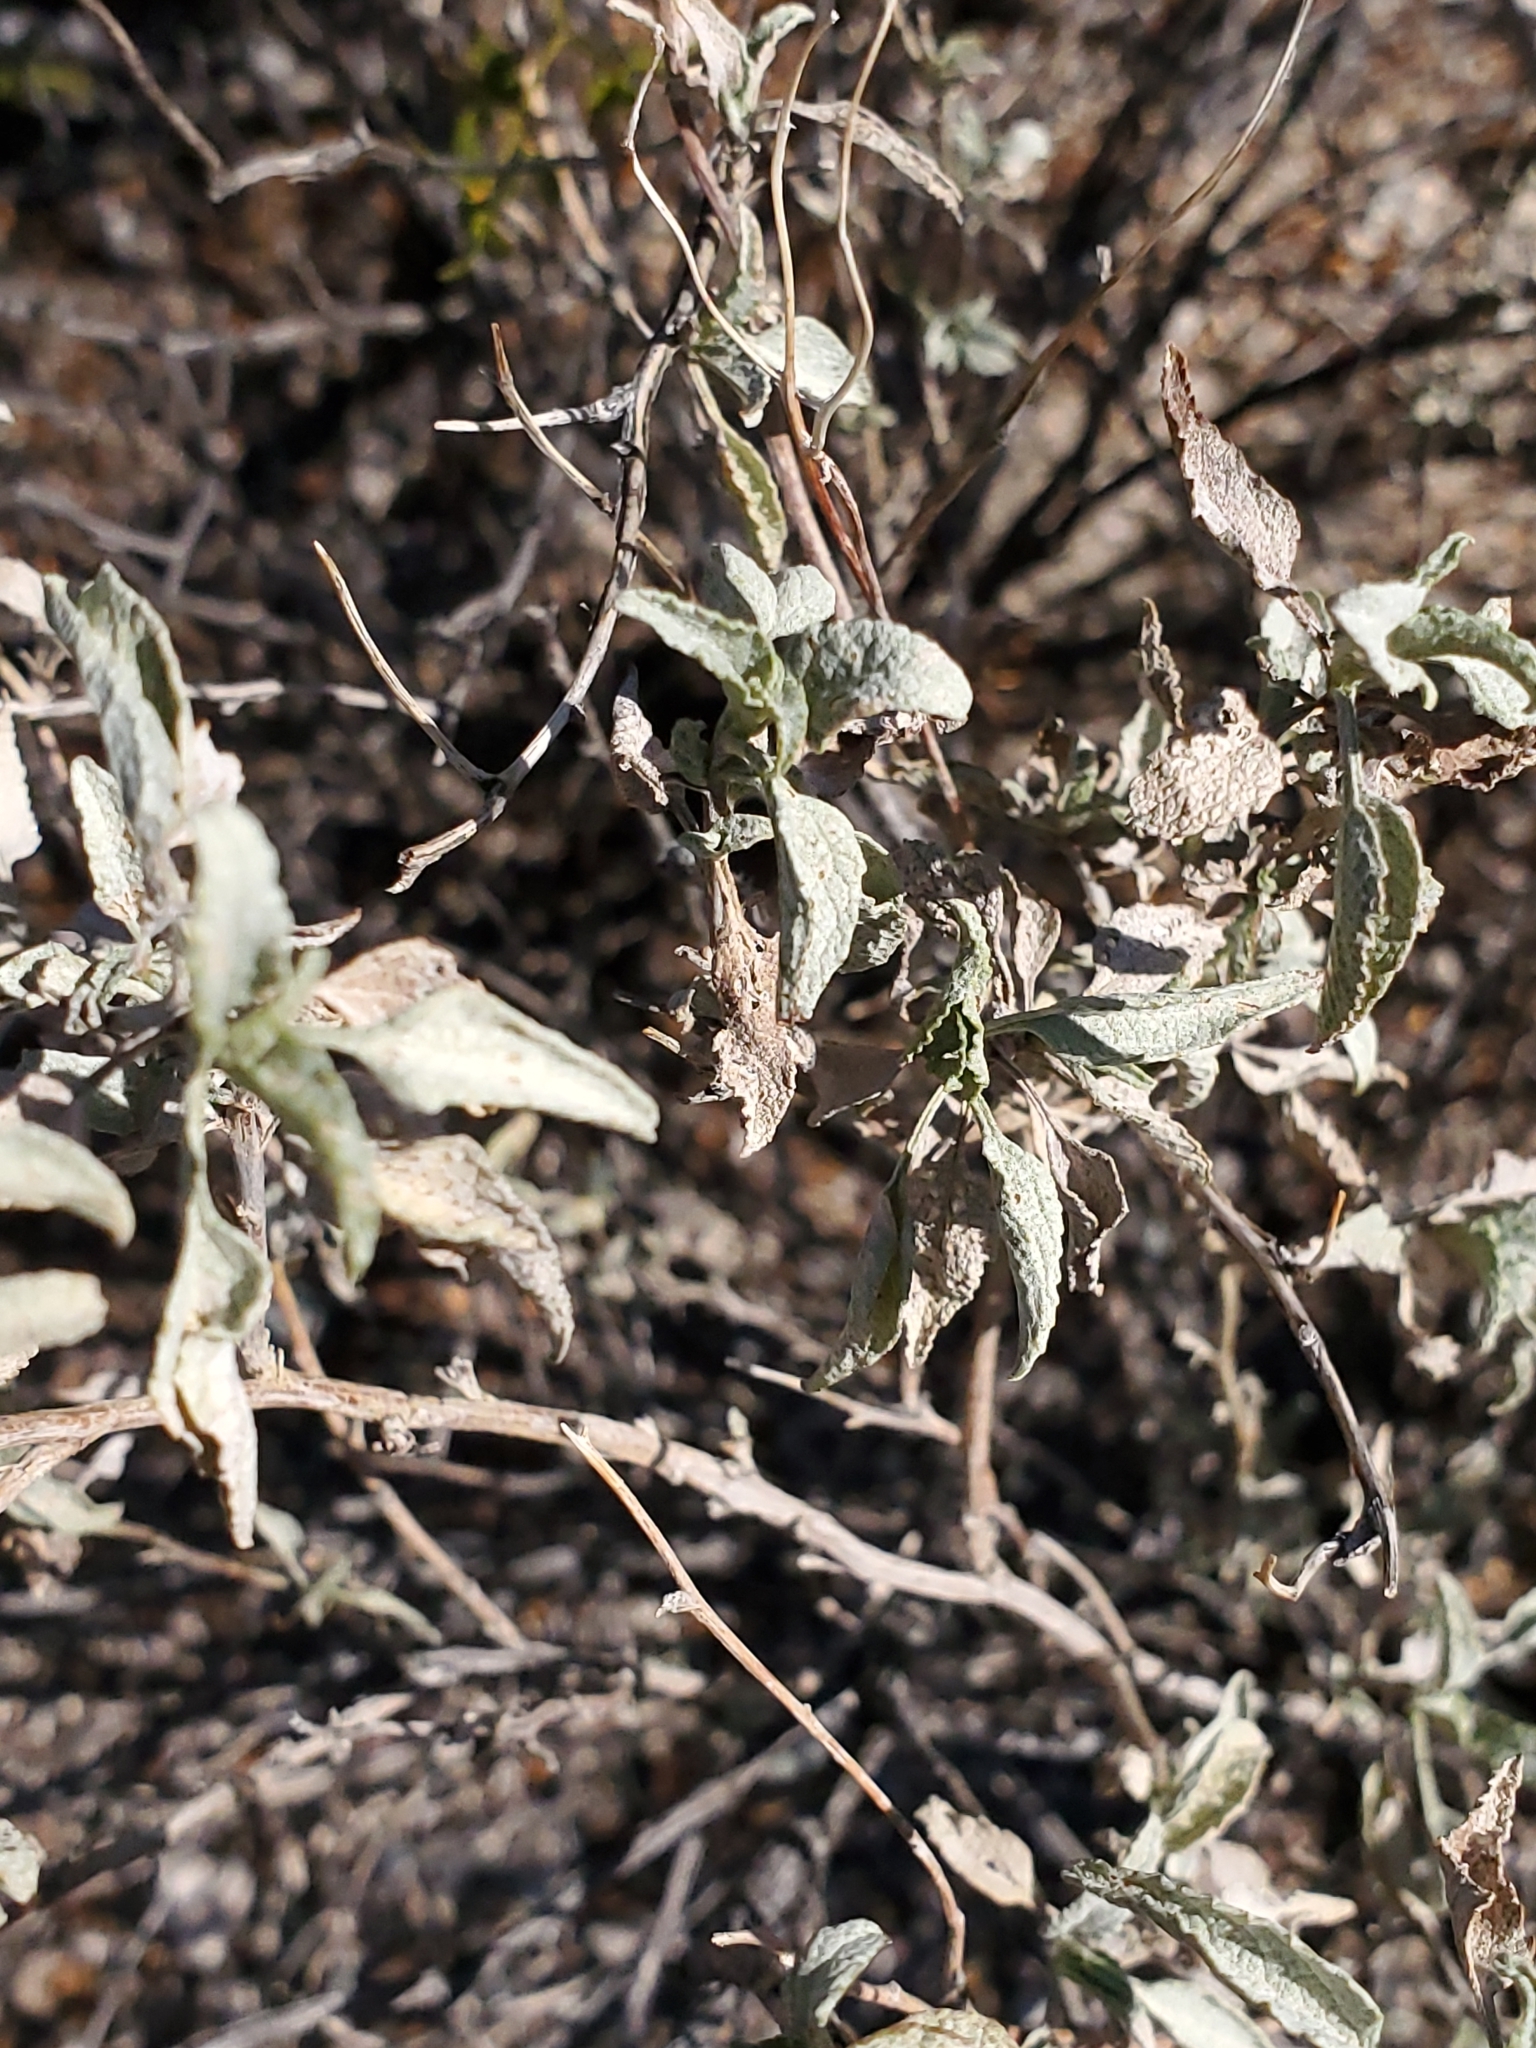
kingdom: Plantae
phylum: Tracheophyta
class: Magnoliopsida
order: Asterales
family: Asteraceae
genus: Ambrosia
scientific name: Ambrosia deltoidea
